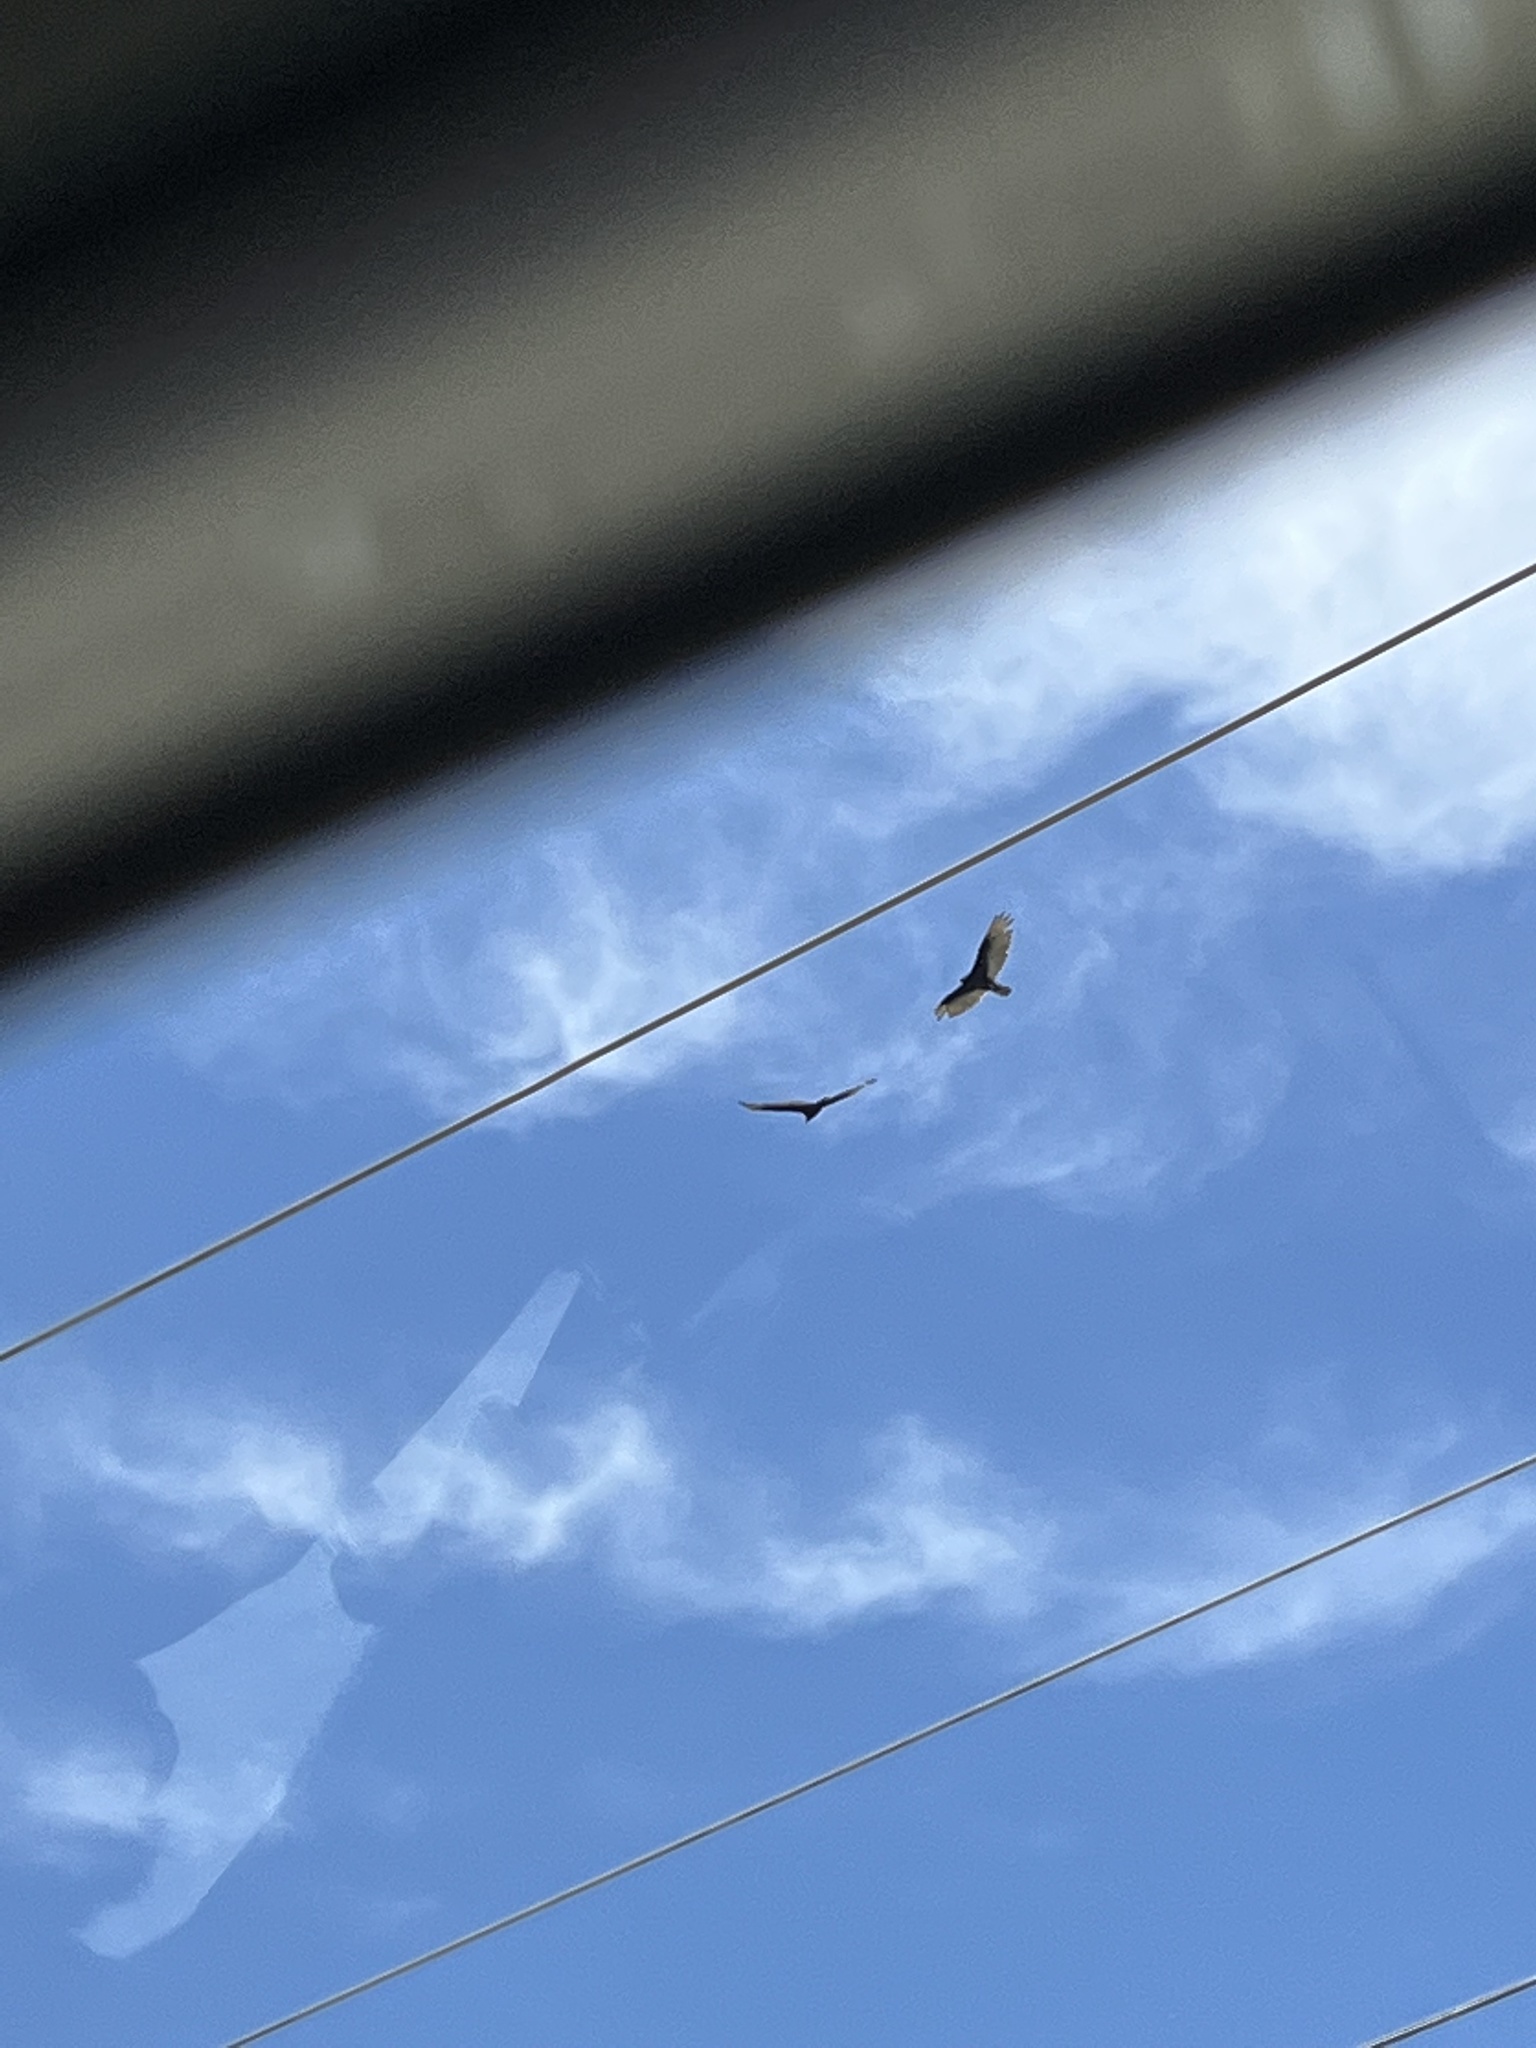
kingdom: Animalia
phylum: Chordata
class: Aves
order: Accipitriformes
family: Cathartidae
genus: Cathartes
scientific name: Cathartes aura
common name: Turkey vulture
